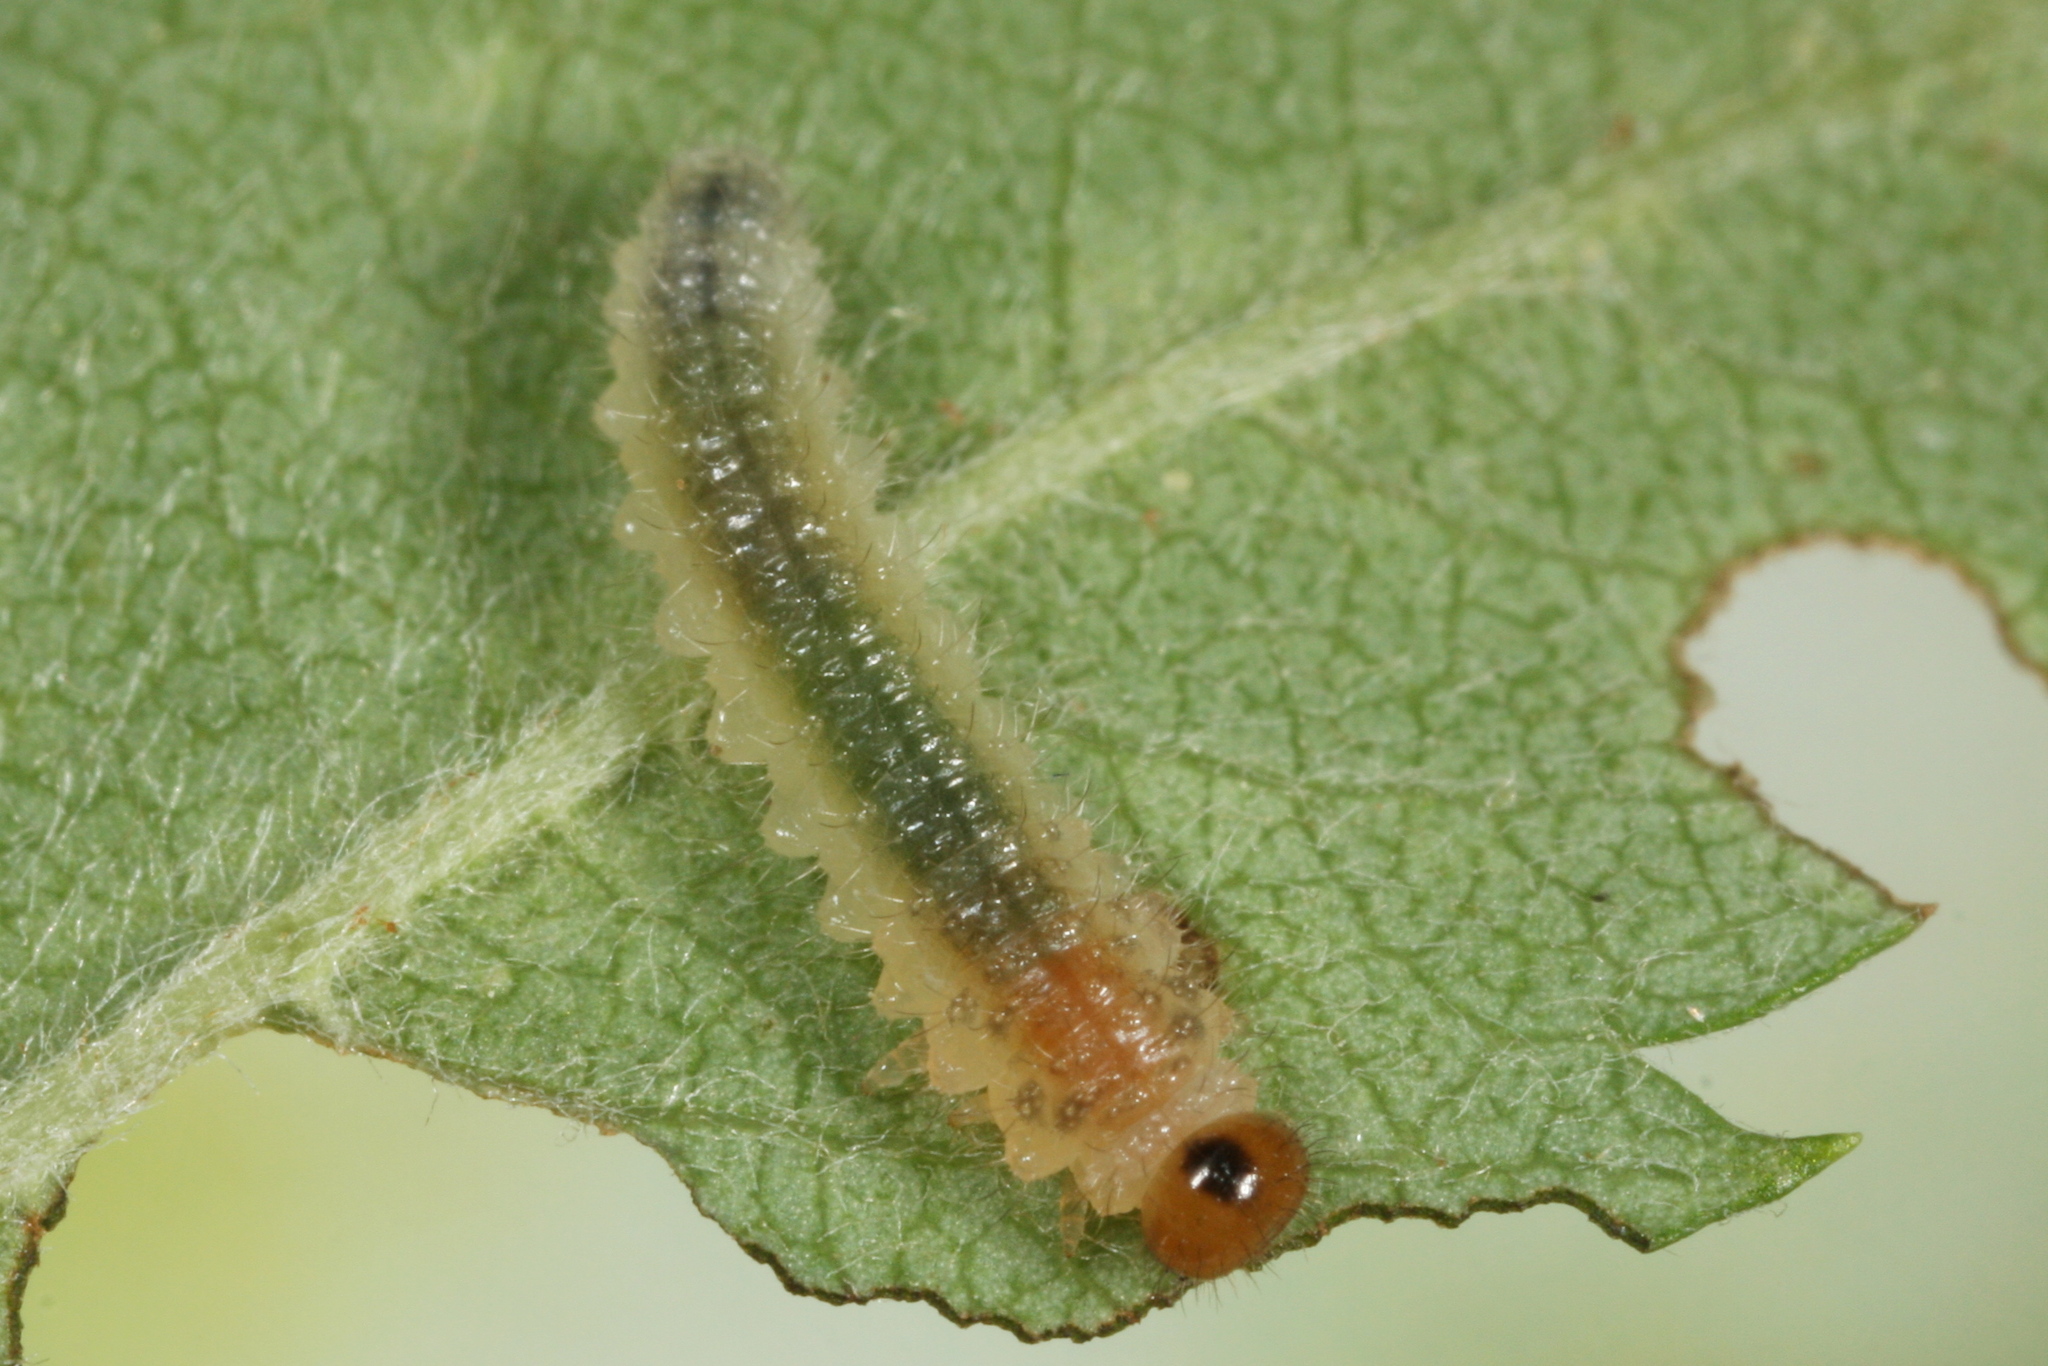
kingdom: Animalia
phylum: Arthropoda
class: Insecta
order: Hymenoptera
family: Tenthredinidae
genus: Cladius
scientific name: Cladius compressicornis
